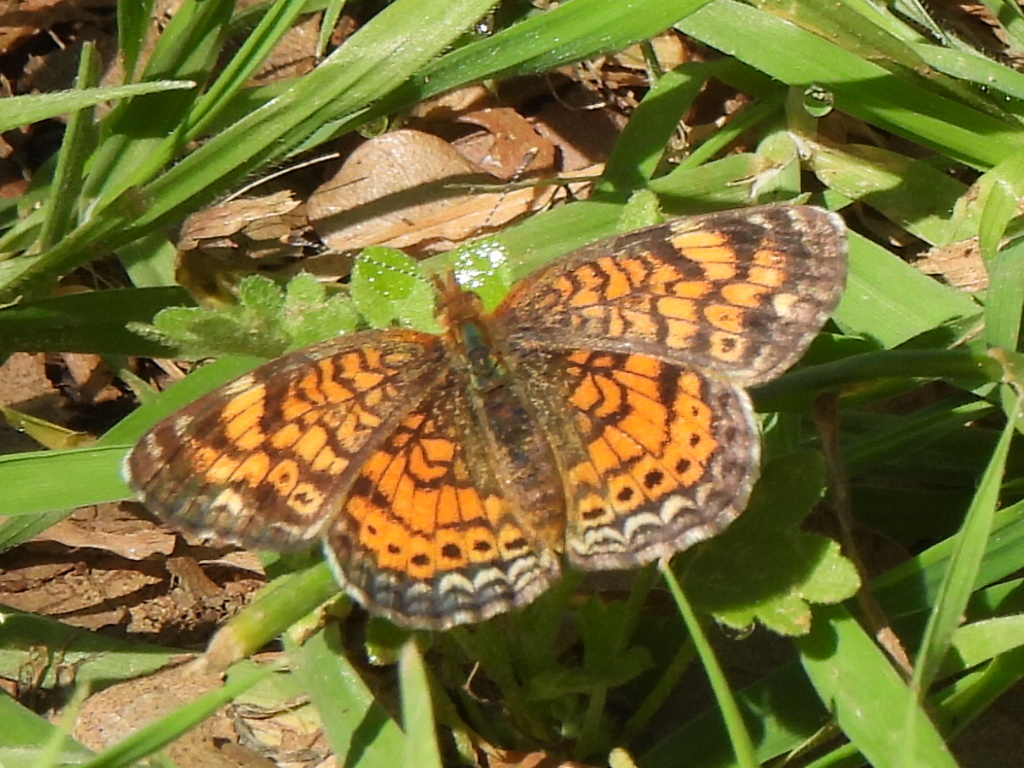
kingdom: Animalia
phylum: Arthropoda
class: Insecta
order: Lepidoptera
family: Nymphalidae
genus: Phyciodes
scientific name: Phyciodes tharos
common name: Pearl crescent
